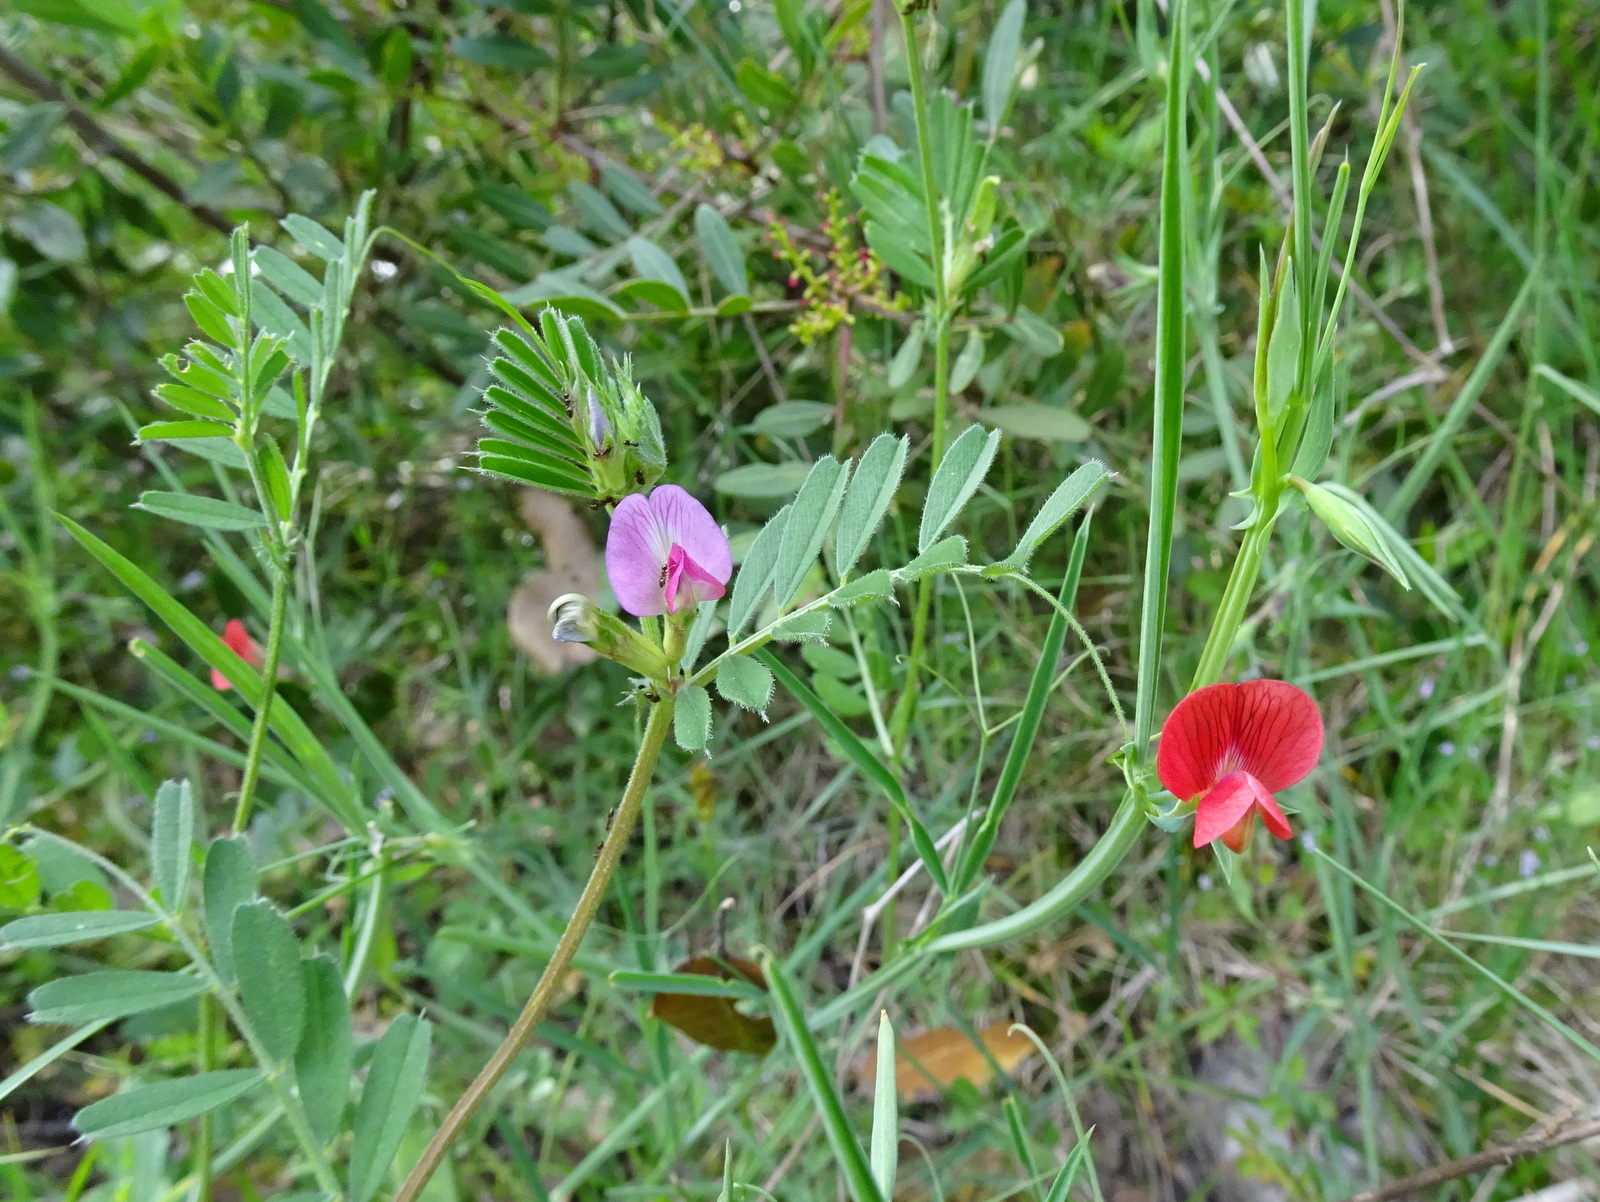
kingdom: Plantae
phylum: Tracheophyta
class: Magnoliopsida
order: Fabales
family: Fabaceae
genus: Lathyrus
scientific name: Lathyrus cicera
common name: Red vetchling
